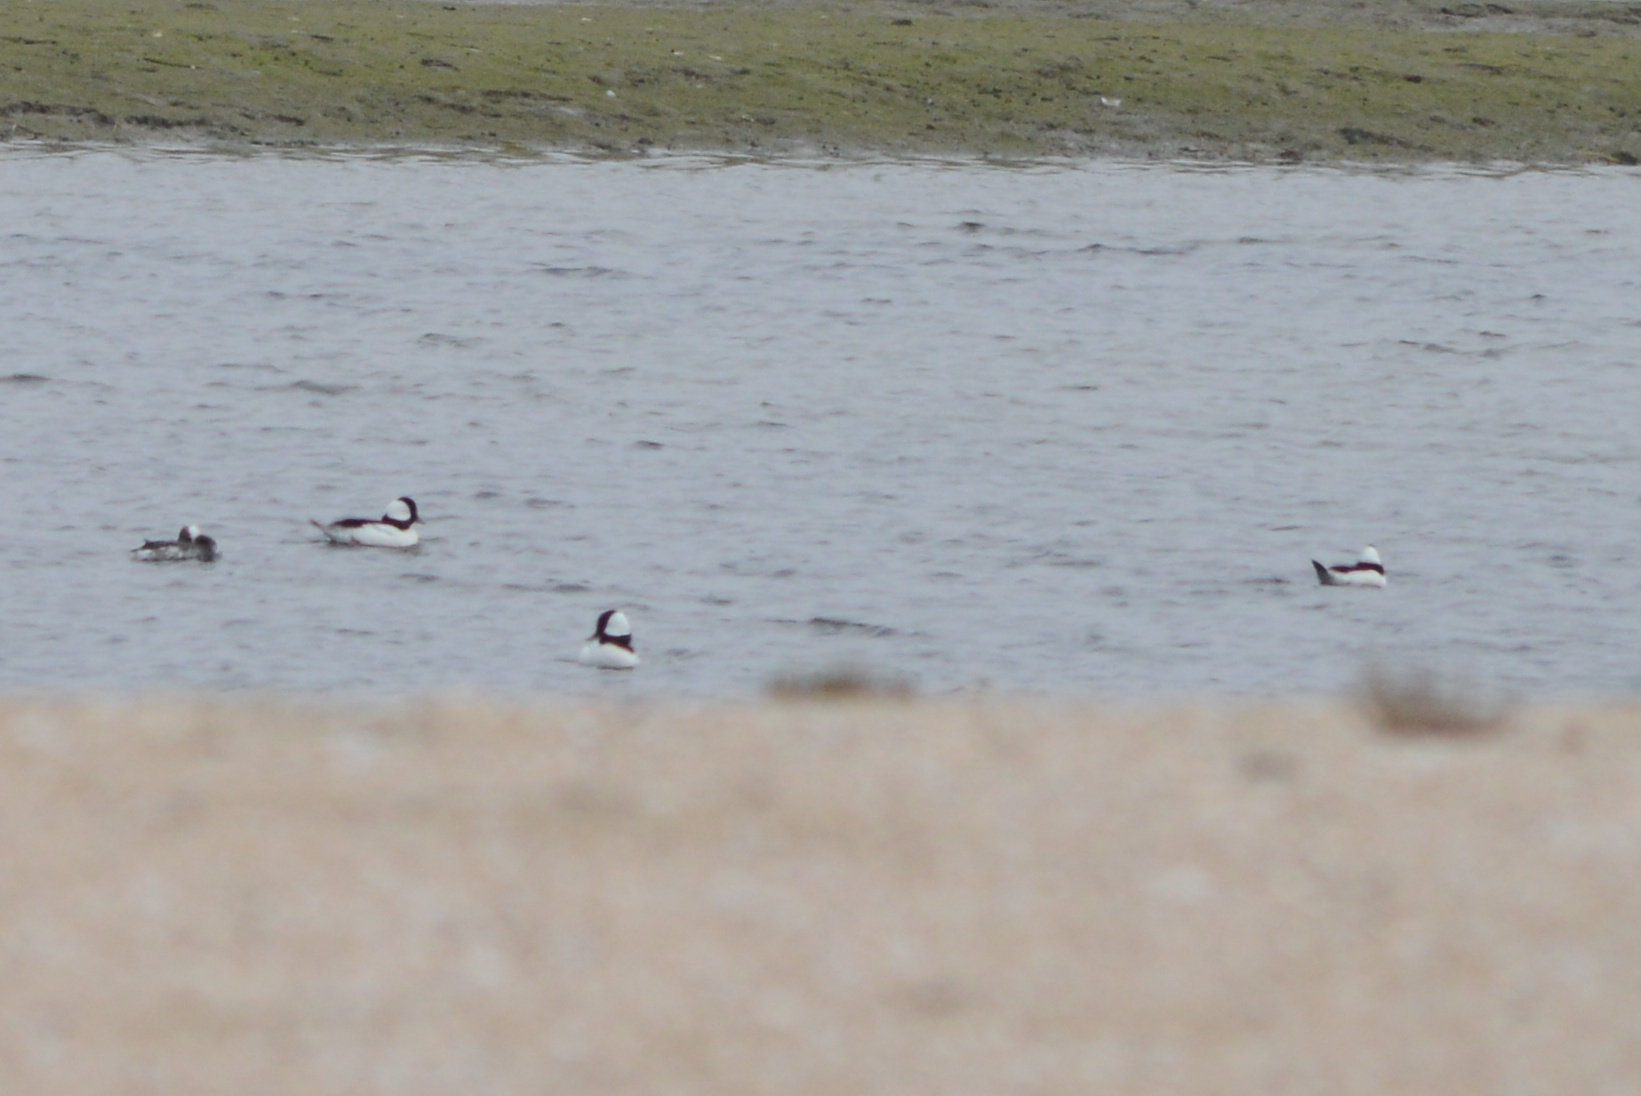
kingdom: Animalia
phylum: Chordata
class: Aves
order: Anseriformes
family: Anatidae
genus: Bucephala
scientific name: Bucephala albeola
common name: Bufflehead
